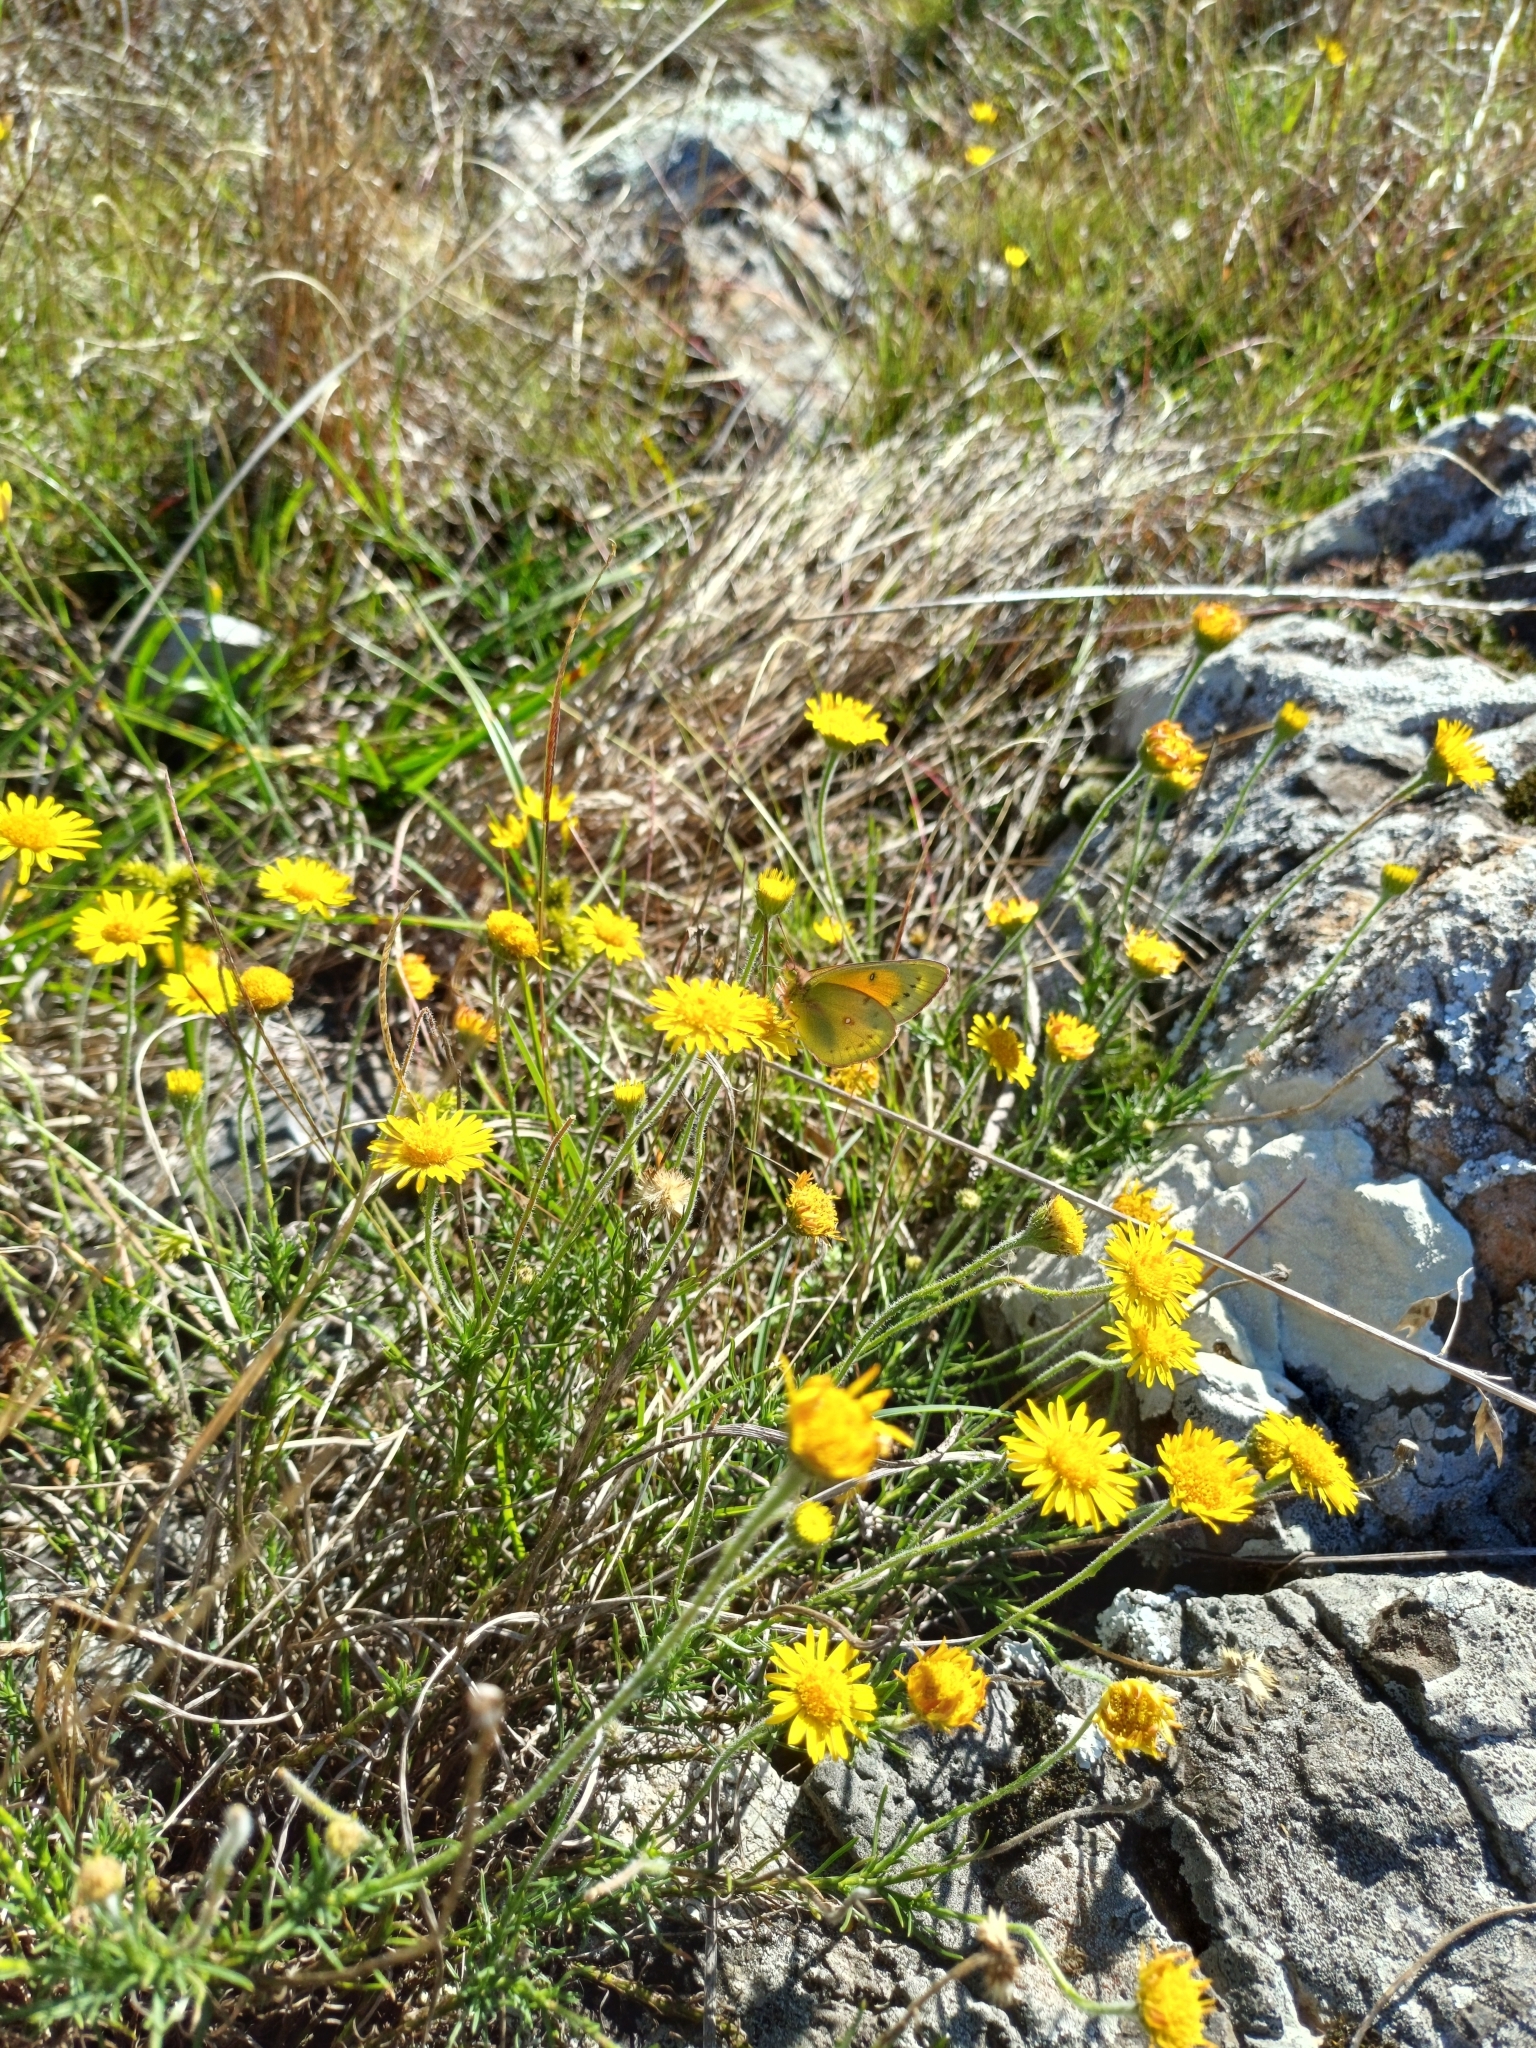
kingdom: Animalia
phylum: Arthropoda
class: Insecta
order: Lepidoptera
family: Pieridae
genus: Colias
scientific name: Colias lesbia
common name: Lesbia clouded yellow
